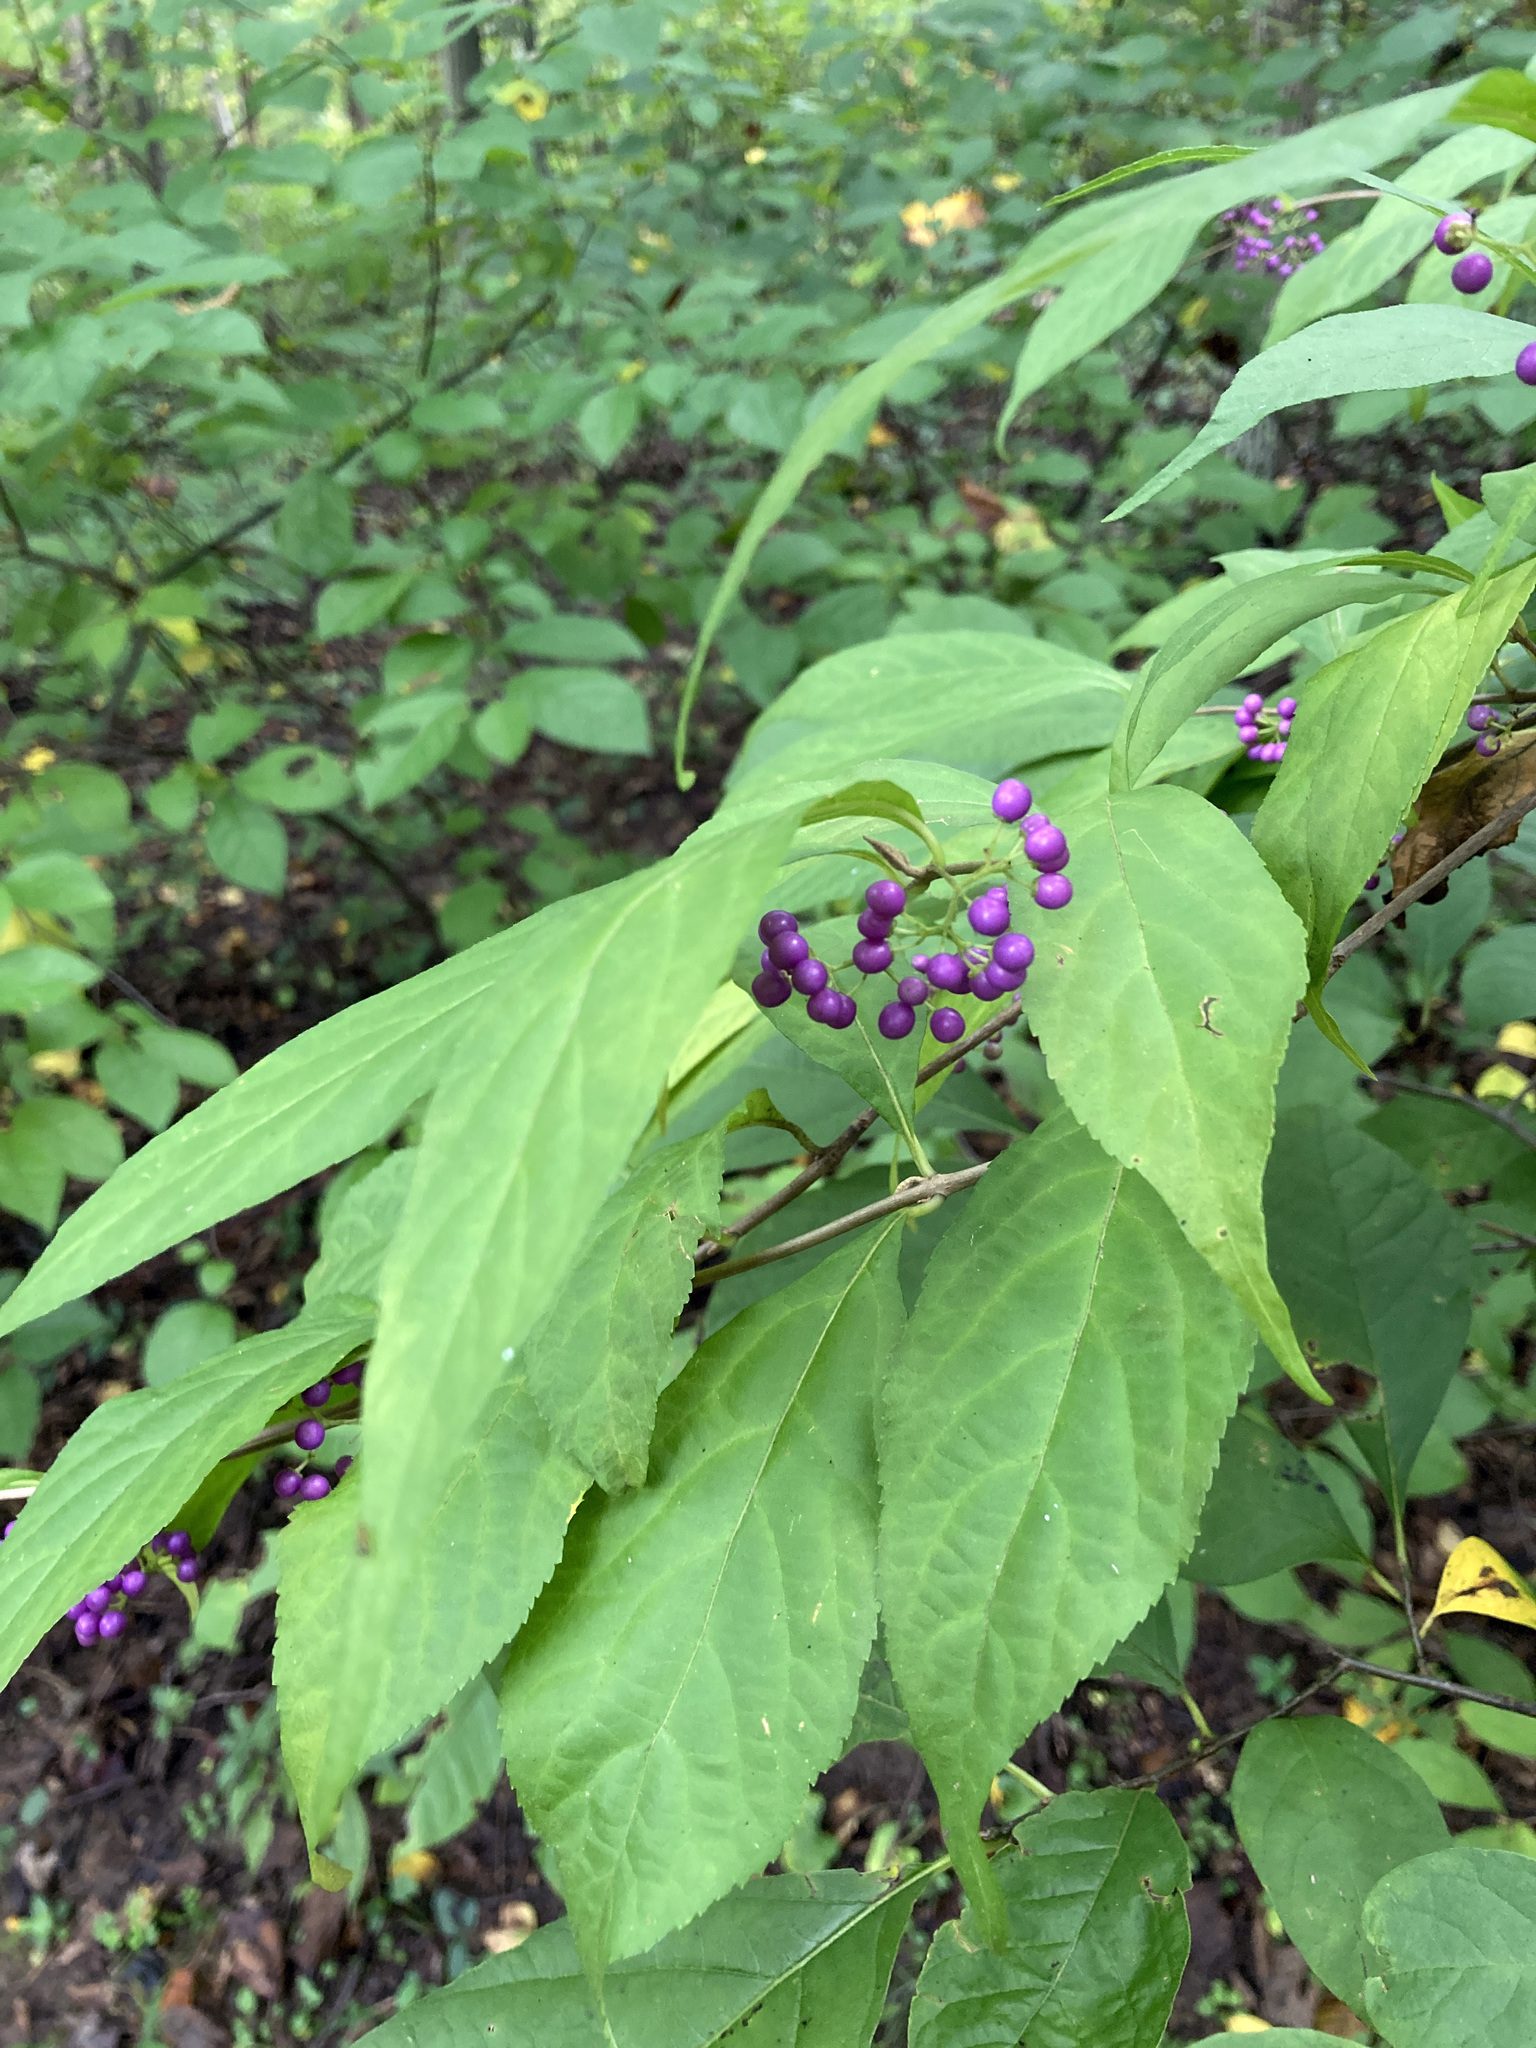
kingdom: Plantae
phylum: Tracheophyta
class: Magnoliopsida
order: Lamiales
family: Lamiaceae
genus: Callicarpa
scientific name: Callicarpa dichotoma
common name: Purple beauty-berry
